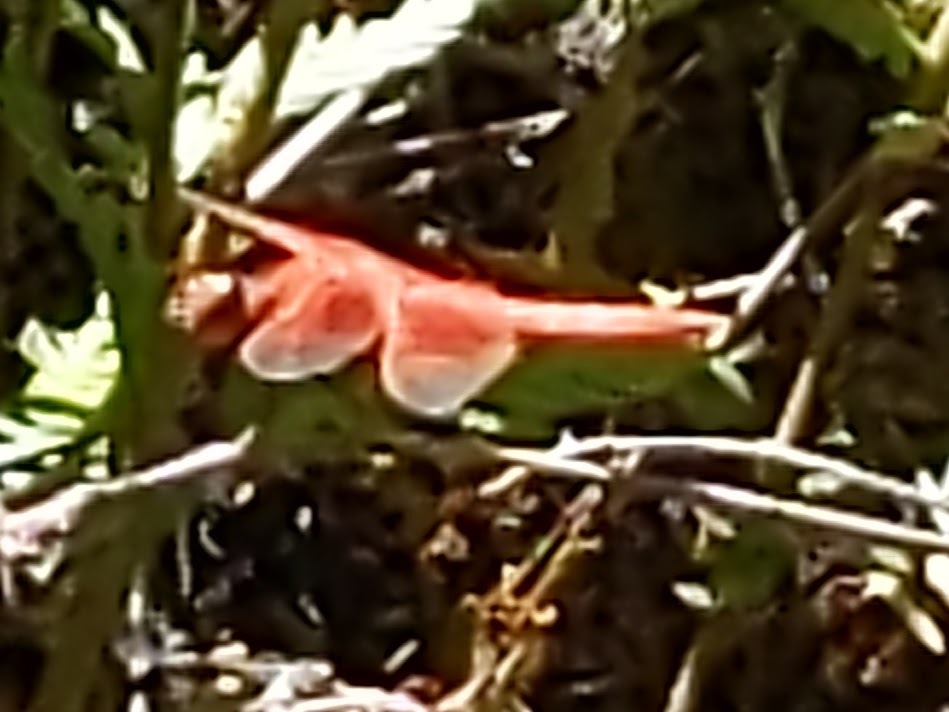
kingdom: Animalia
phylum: Arthropoda
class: Insecta
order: Odonata
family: Libellulidae
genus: Libellula
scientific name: Libellula saturata
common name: Flame skimmer
